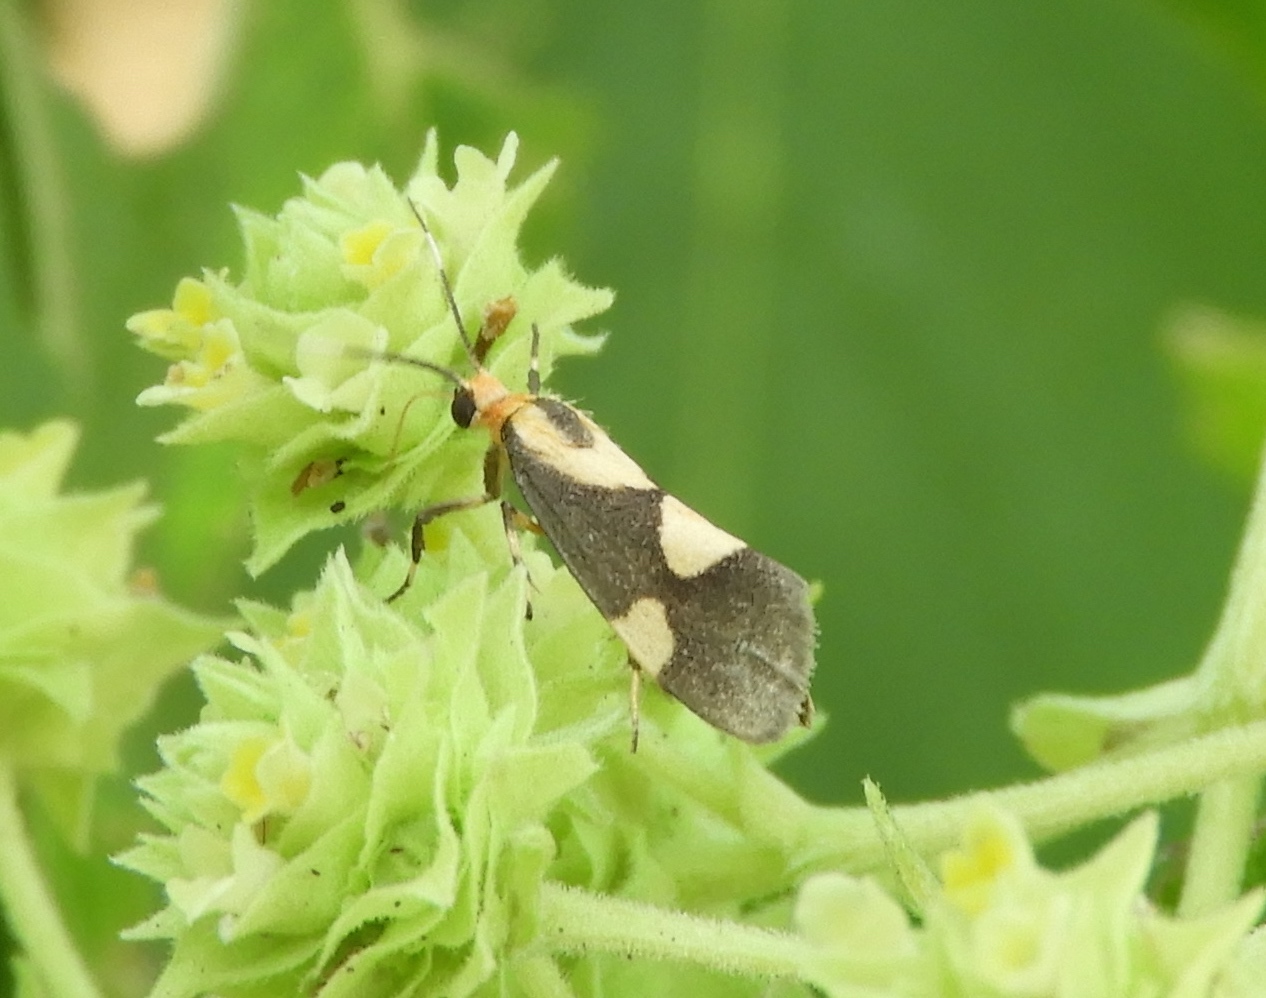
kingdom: Animalia
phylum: Arthropoda
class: Insecta
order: Lepidoptera
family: Erebidae
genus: Cisthene
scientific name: Cisthene
